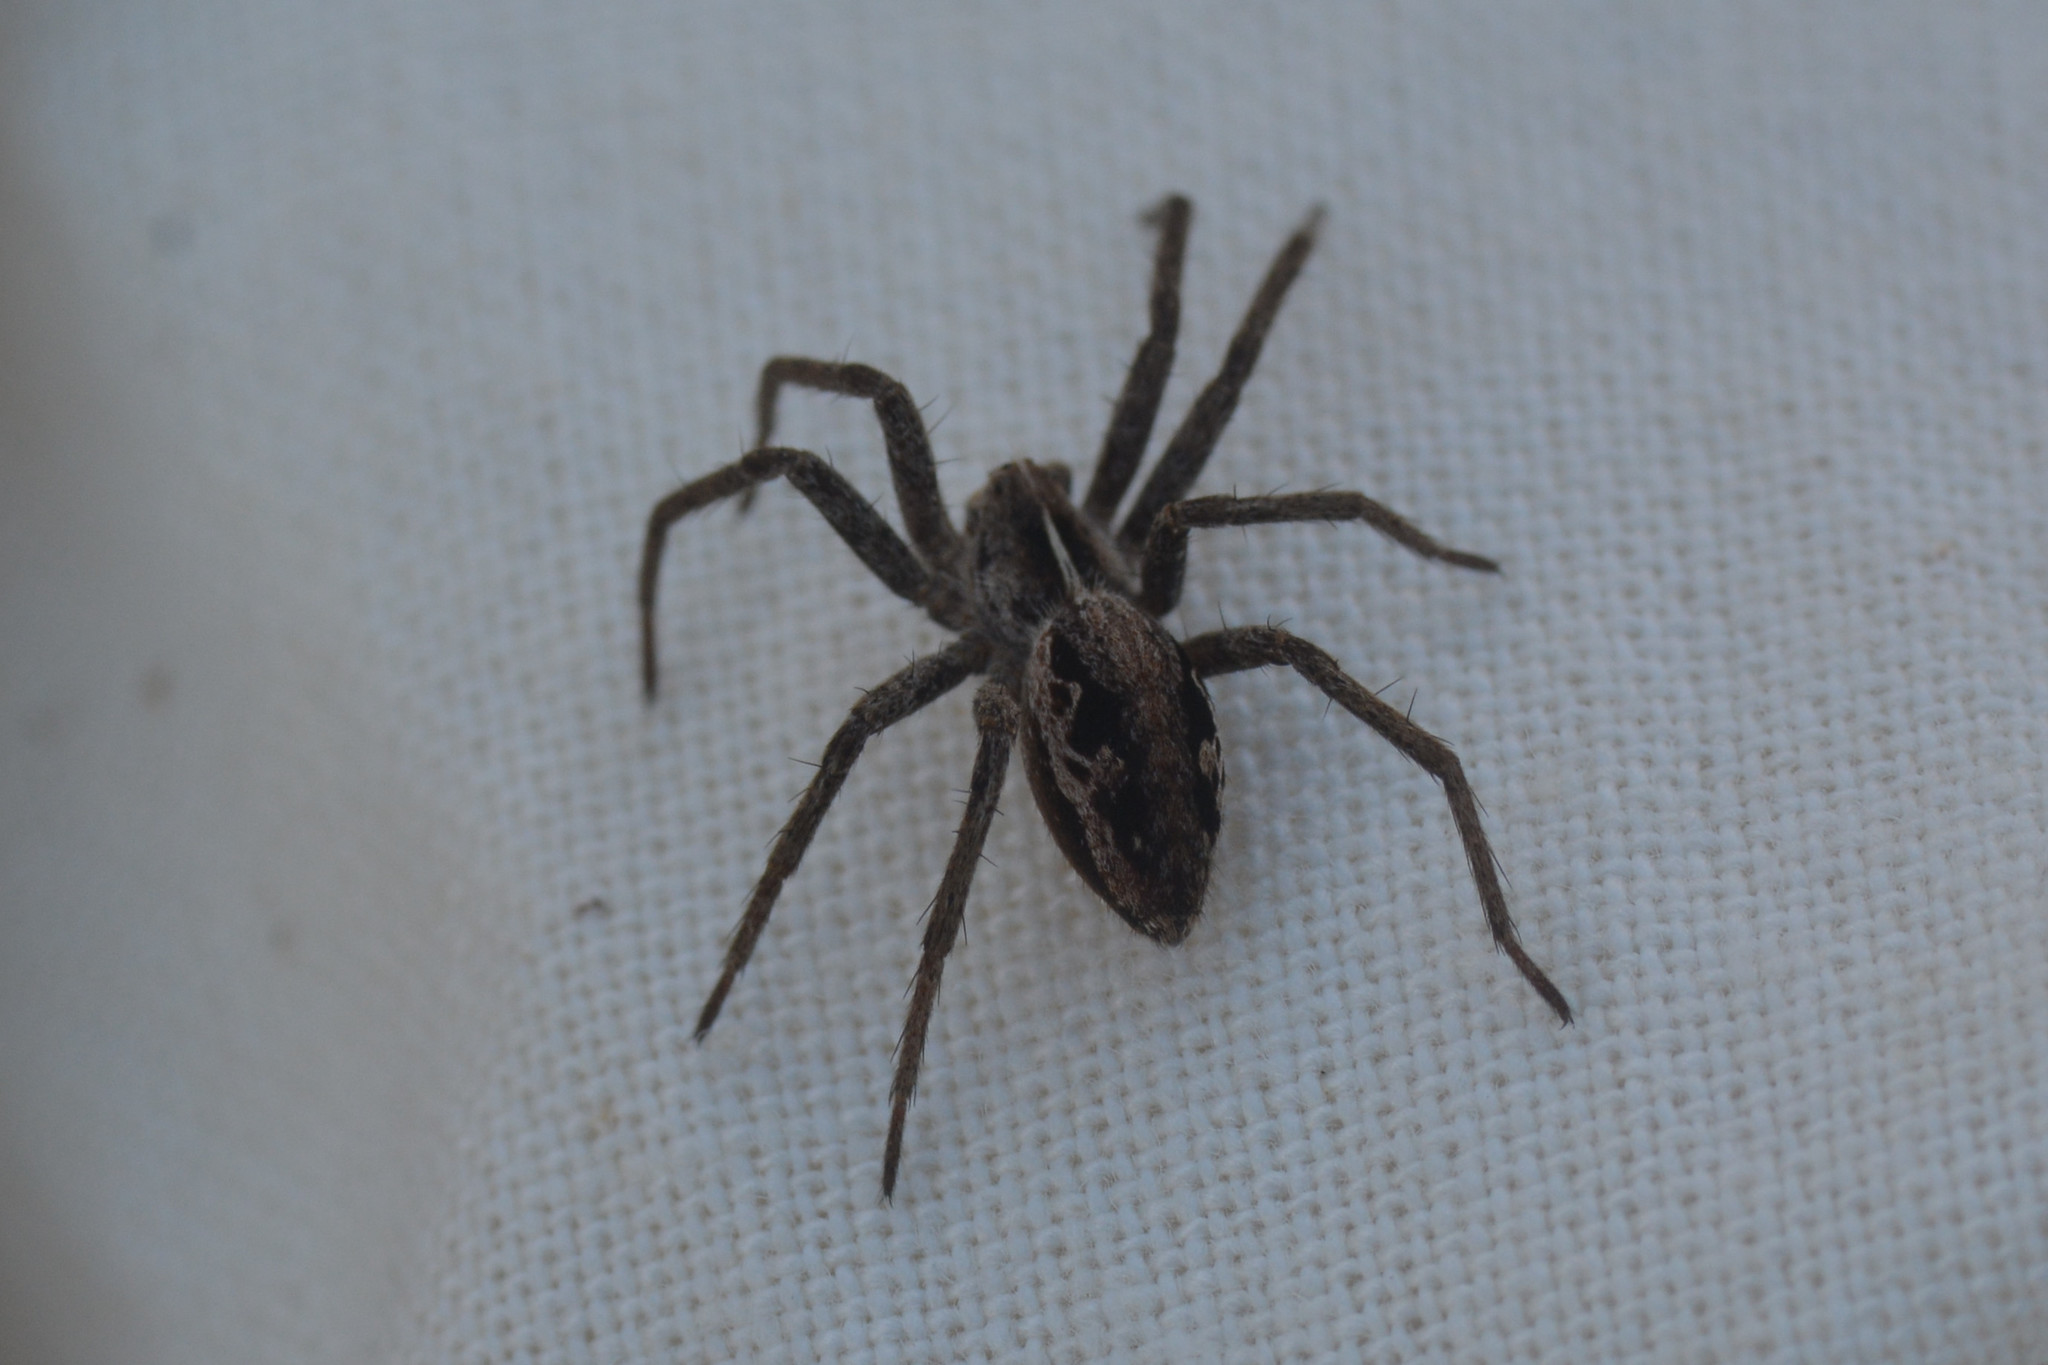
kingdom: Animalia
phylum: Arthropoda
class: Arachnida
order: Araneae
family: Pisauridae
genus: Pisaura
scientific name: Pisaura mirabilis
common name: Tent spider
